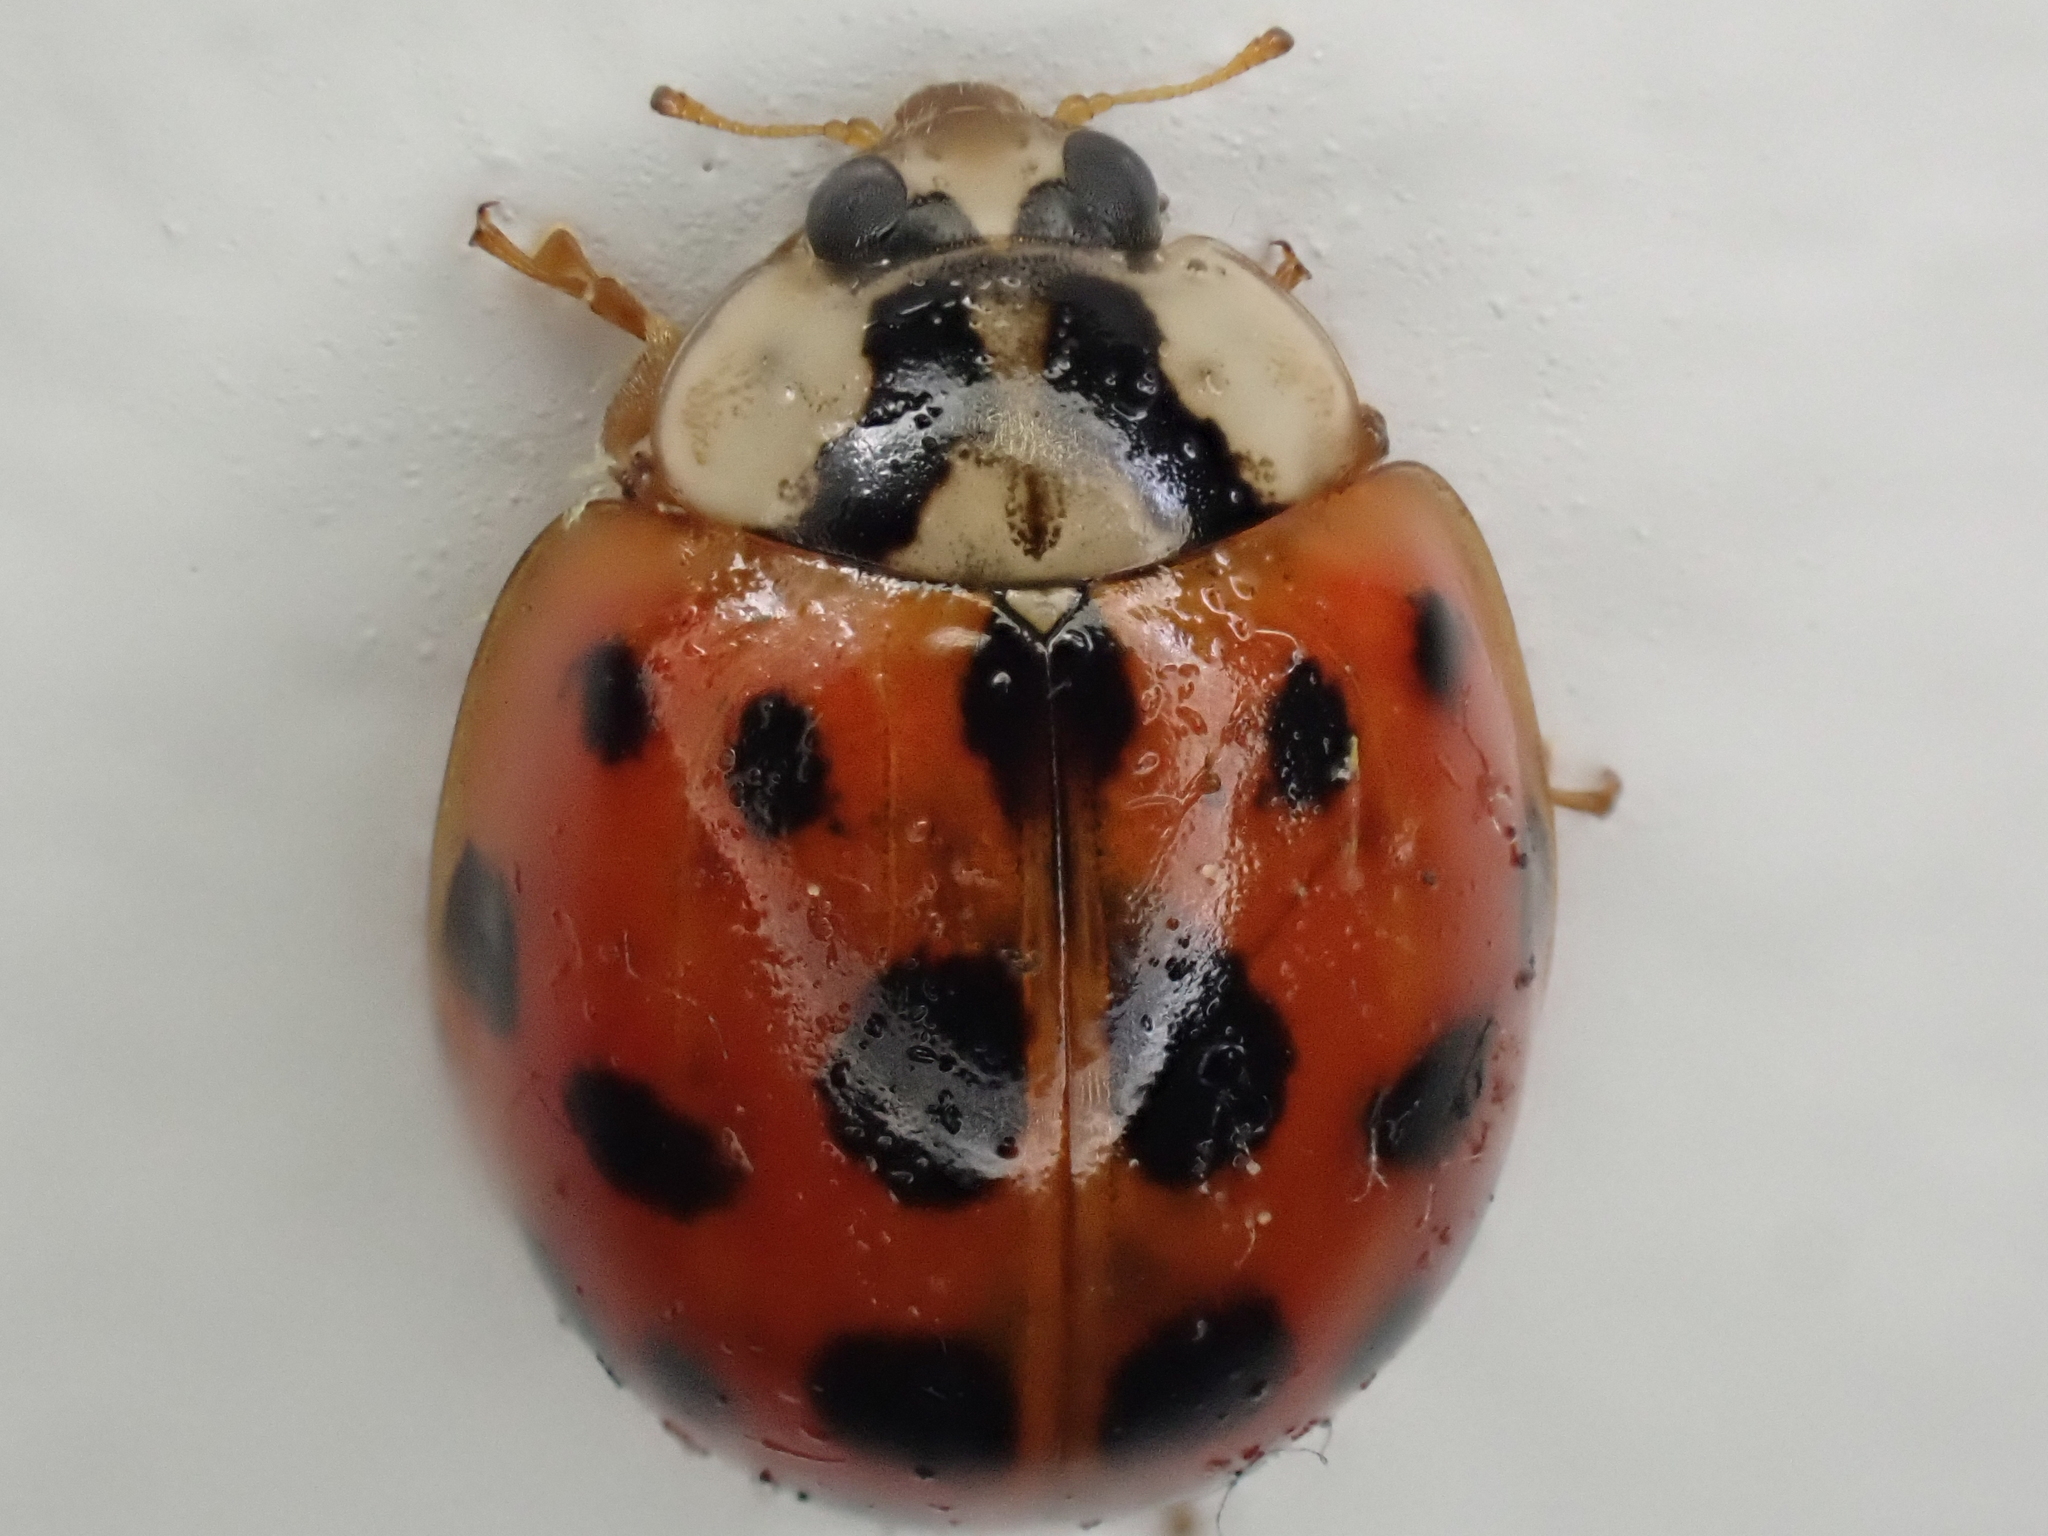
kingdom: Animalia
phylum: Arthropoda
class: Insecta
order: Coleoptera
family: Coccinellidae
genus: Harmonia
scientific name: Harmonia axyridis
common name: Harlequin ladybird
